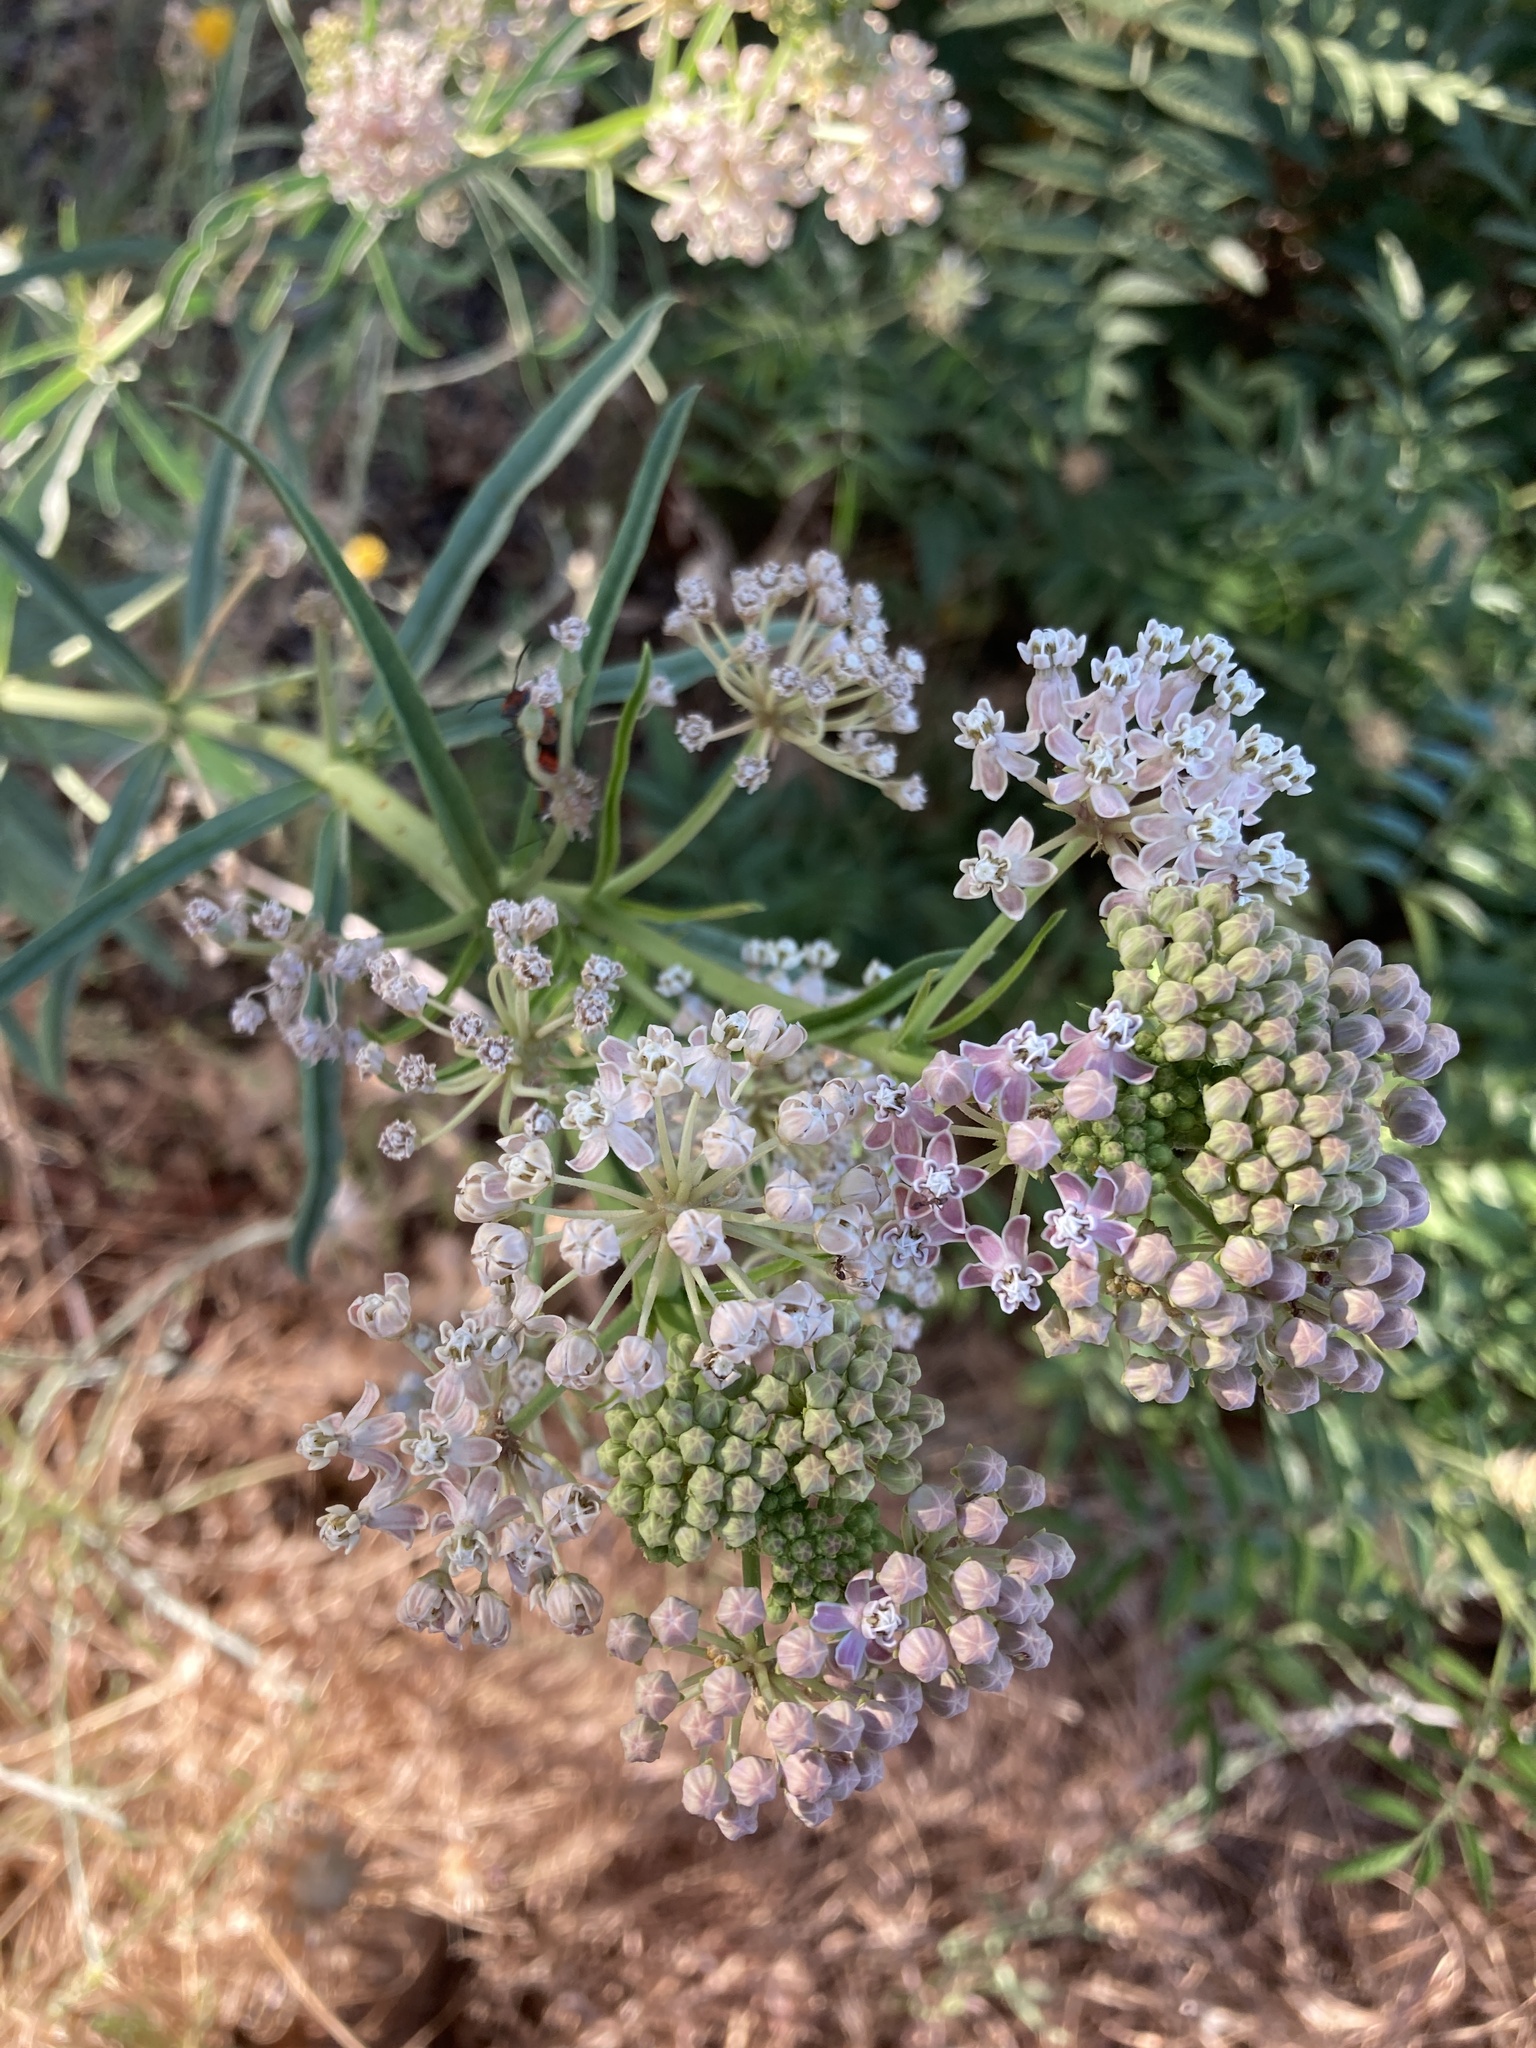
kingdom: Plantae
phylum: Tracheophyta
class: Magnoliopsida
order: Gentianales
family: Apocynaceae
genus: Asclepias
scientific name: Asclepias fascicularis
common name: Mexican milkweed
